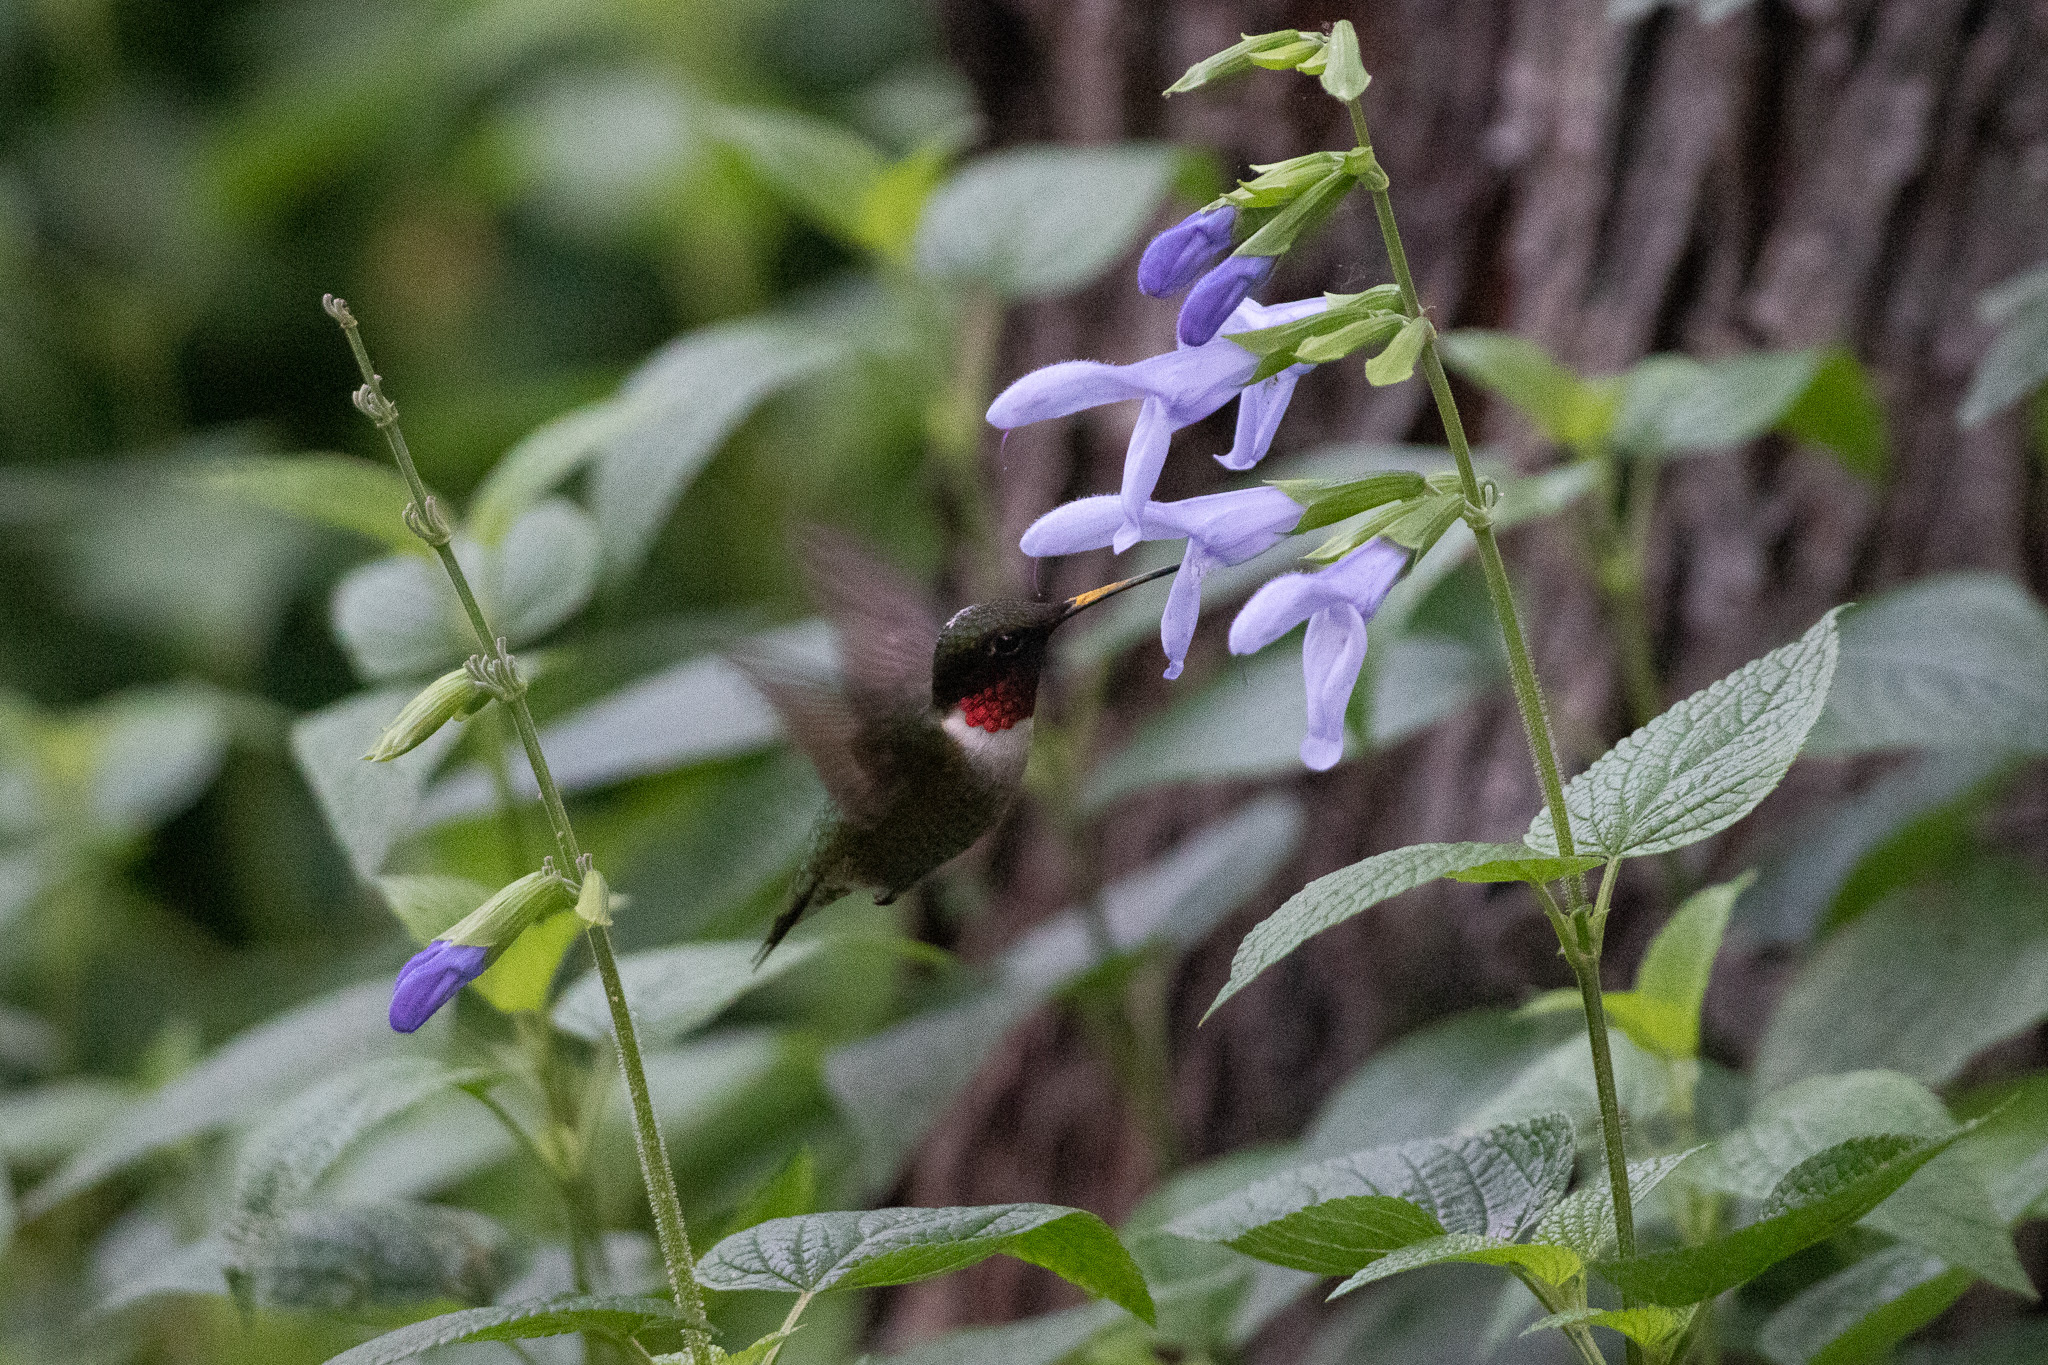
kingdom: Animalia
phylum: Chordata
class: Aves
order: Apodiformes
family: Trochilidae
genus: Archilochus
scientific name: Archilochus colubris
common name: Ruby-throated hummingbird
